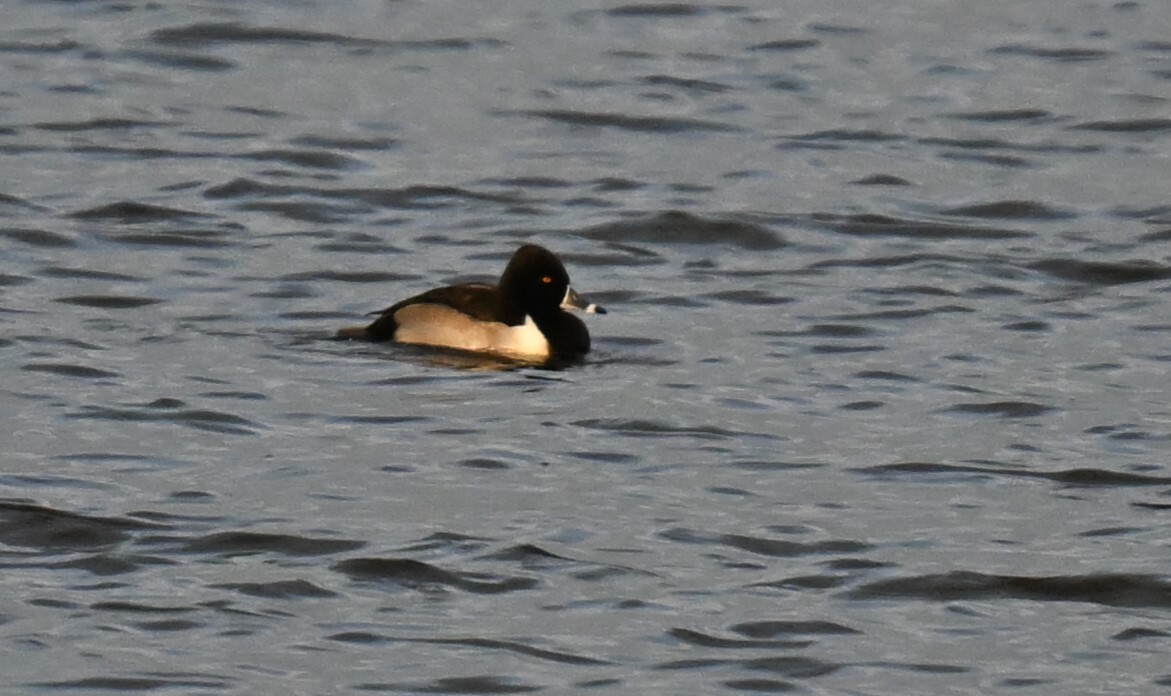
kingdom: Animalia
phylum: Chordata
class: Aves
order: Anseriformes
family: Anatidae
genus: Aythya
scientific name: Aythya collaris
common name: Ring-necked duck
